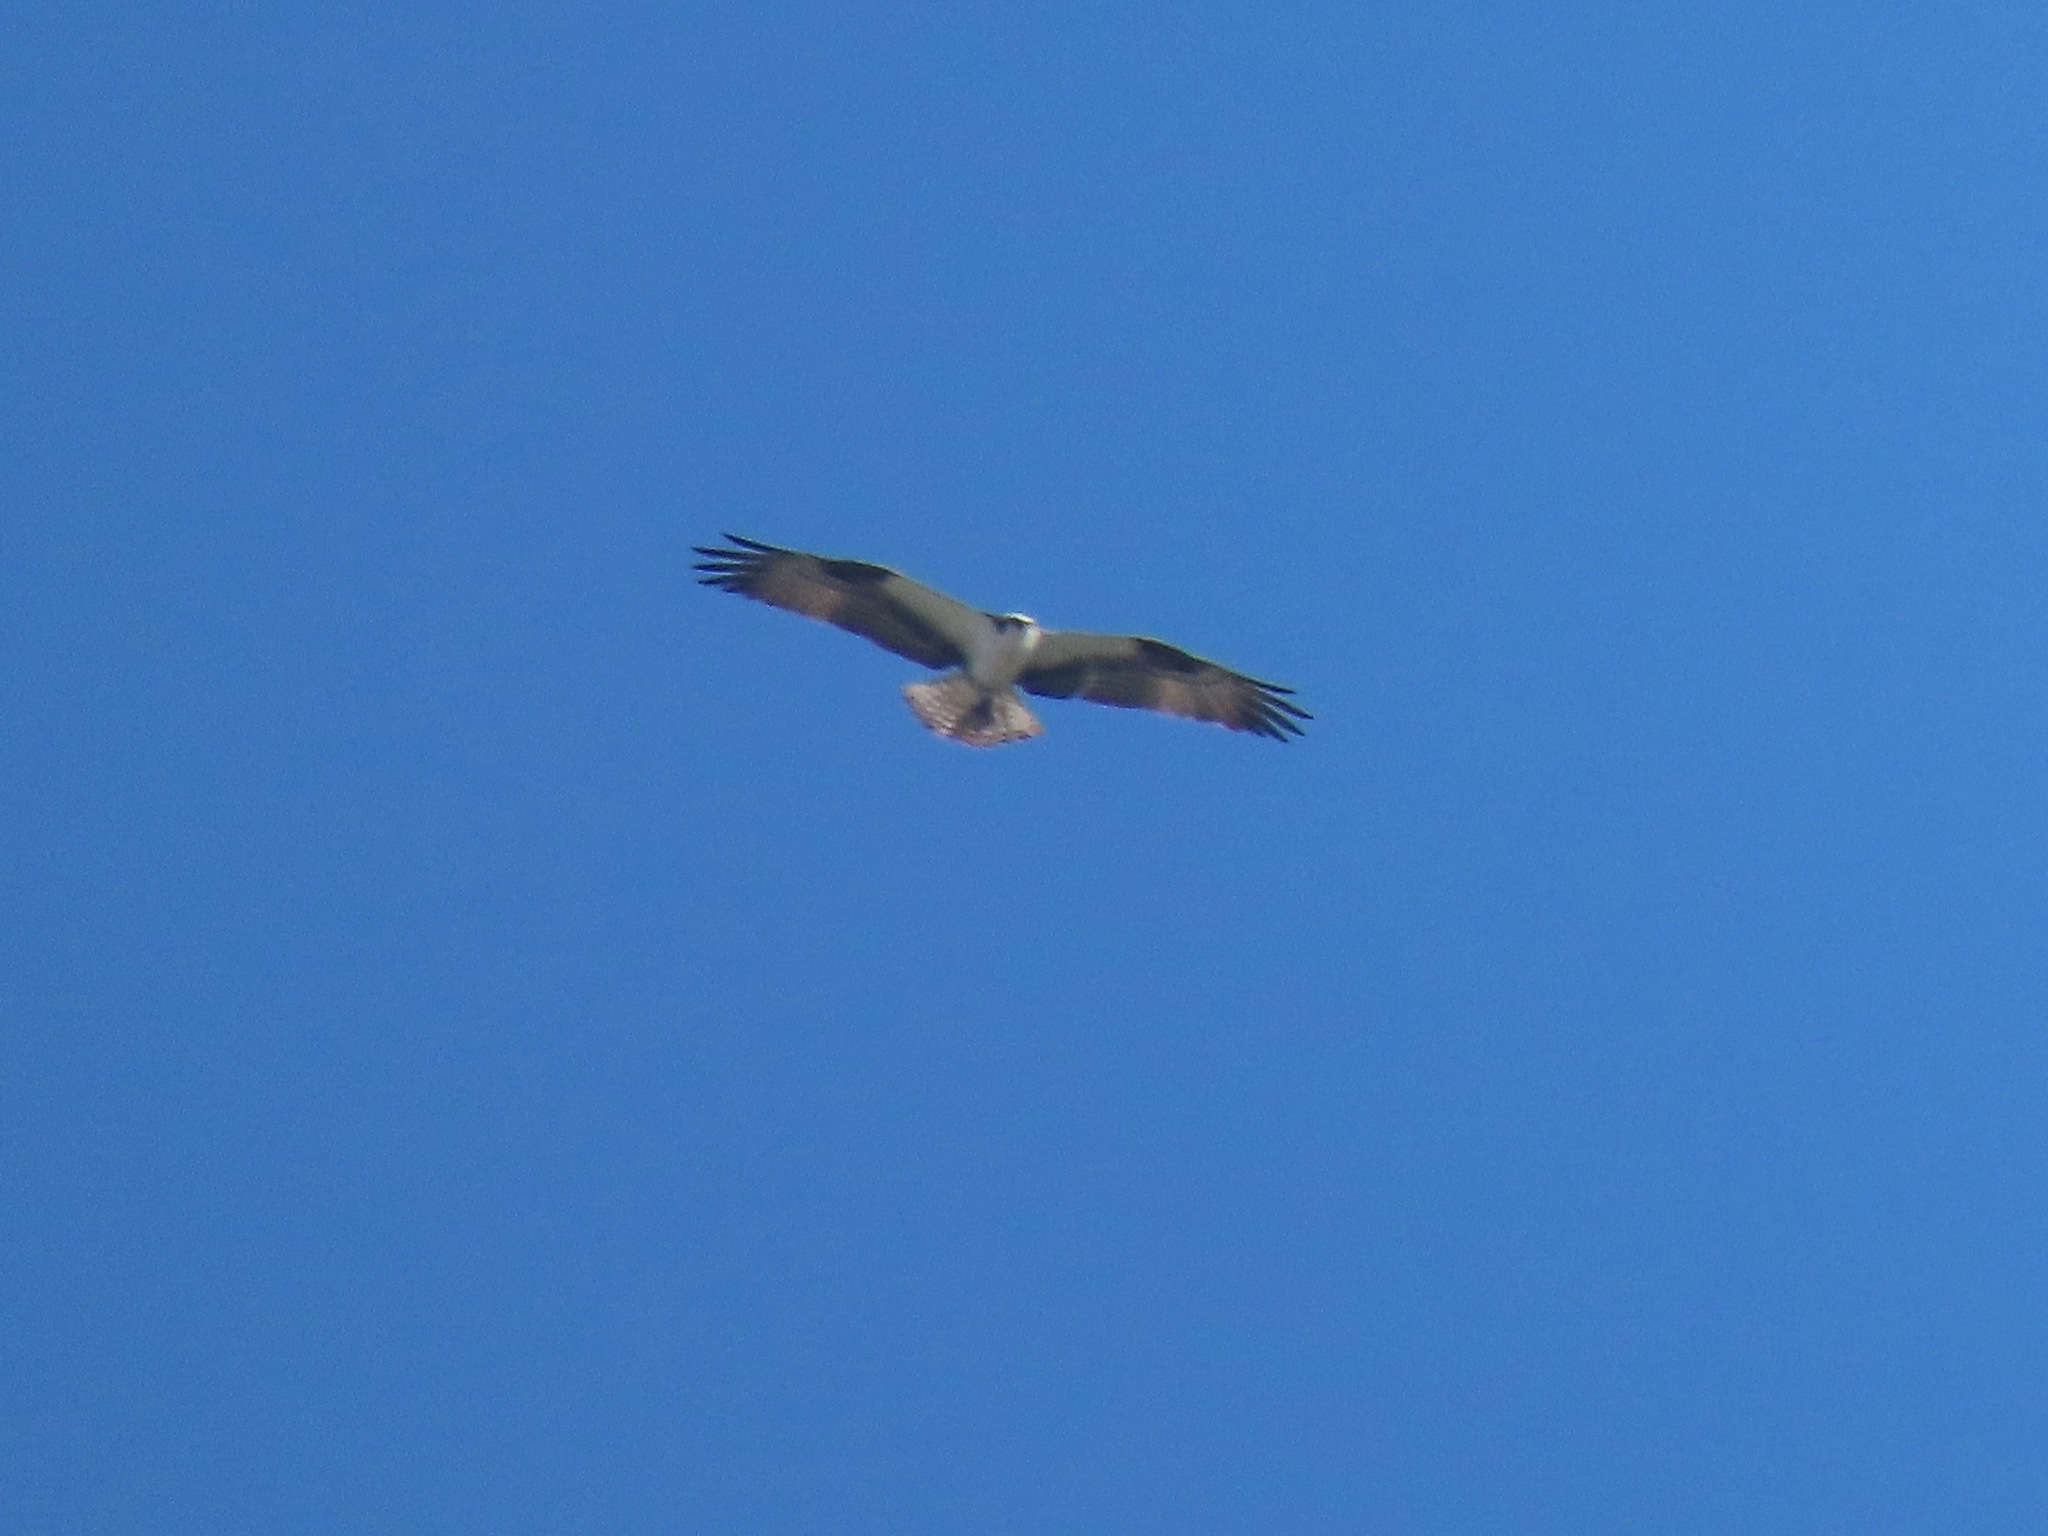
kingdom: Animalia
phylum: Chordata
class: Aves
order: Accipitriformes
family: Pandionidae
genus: Pandion
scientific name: Pandion haliaetus
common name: Osprey
